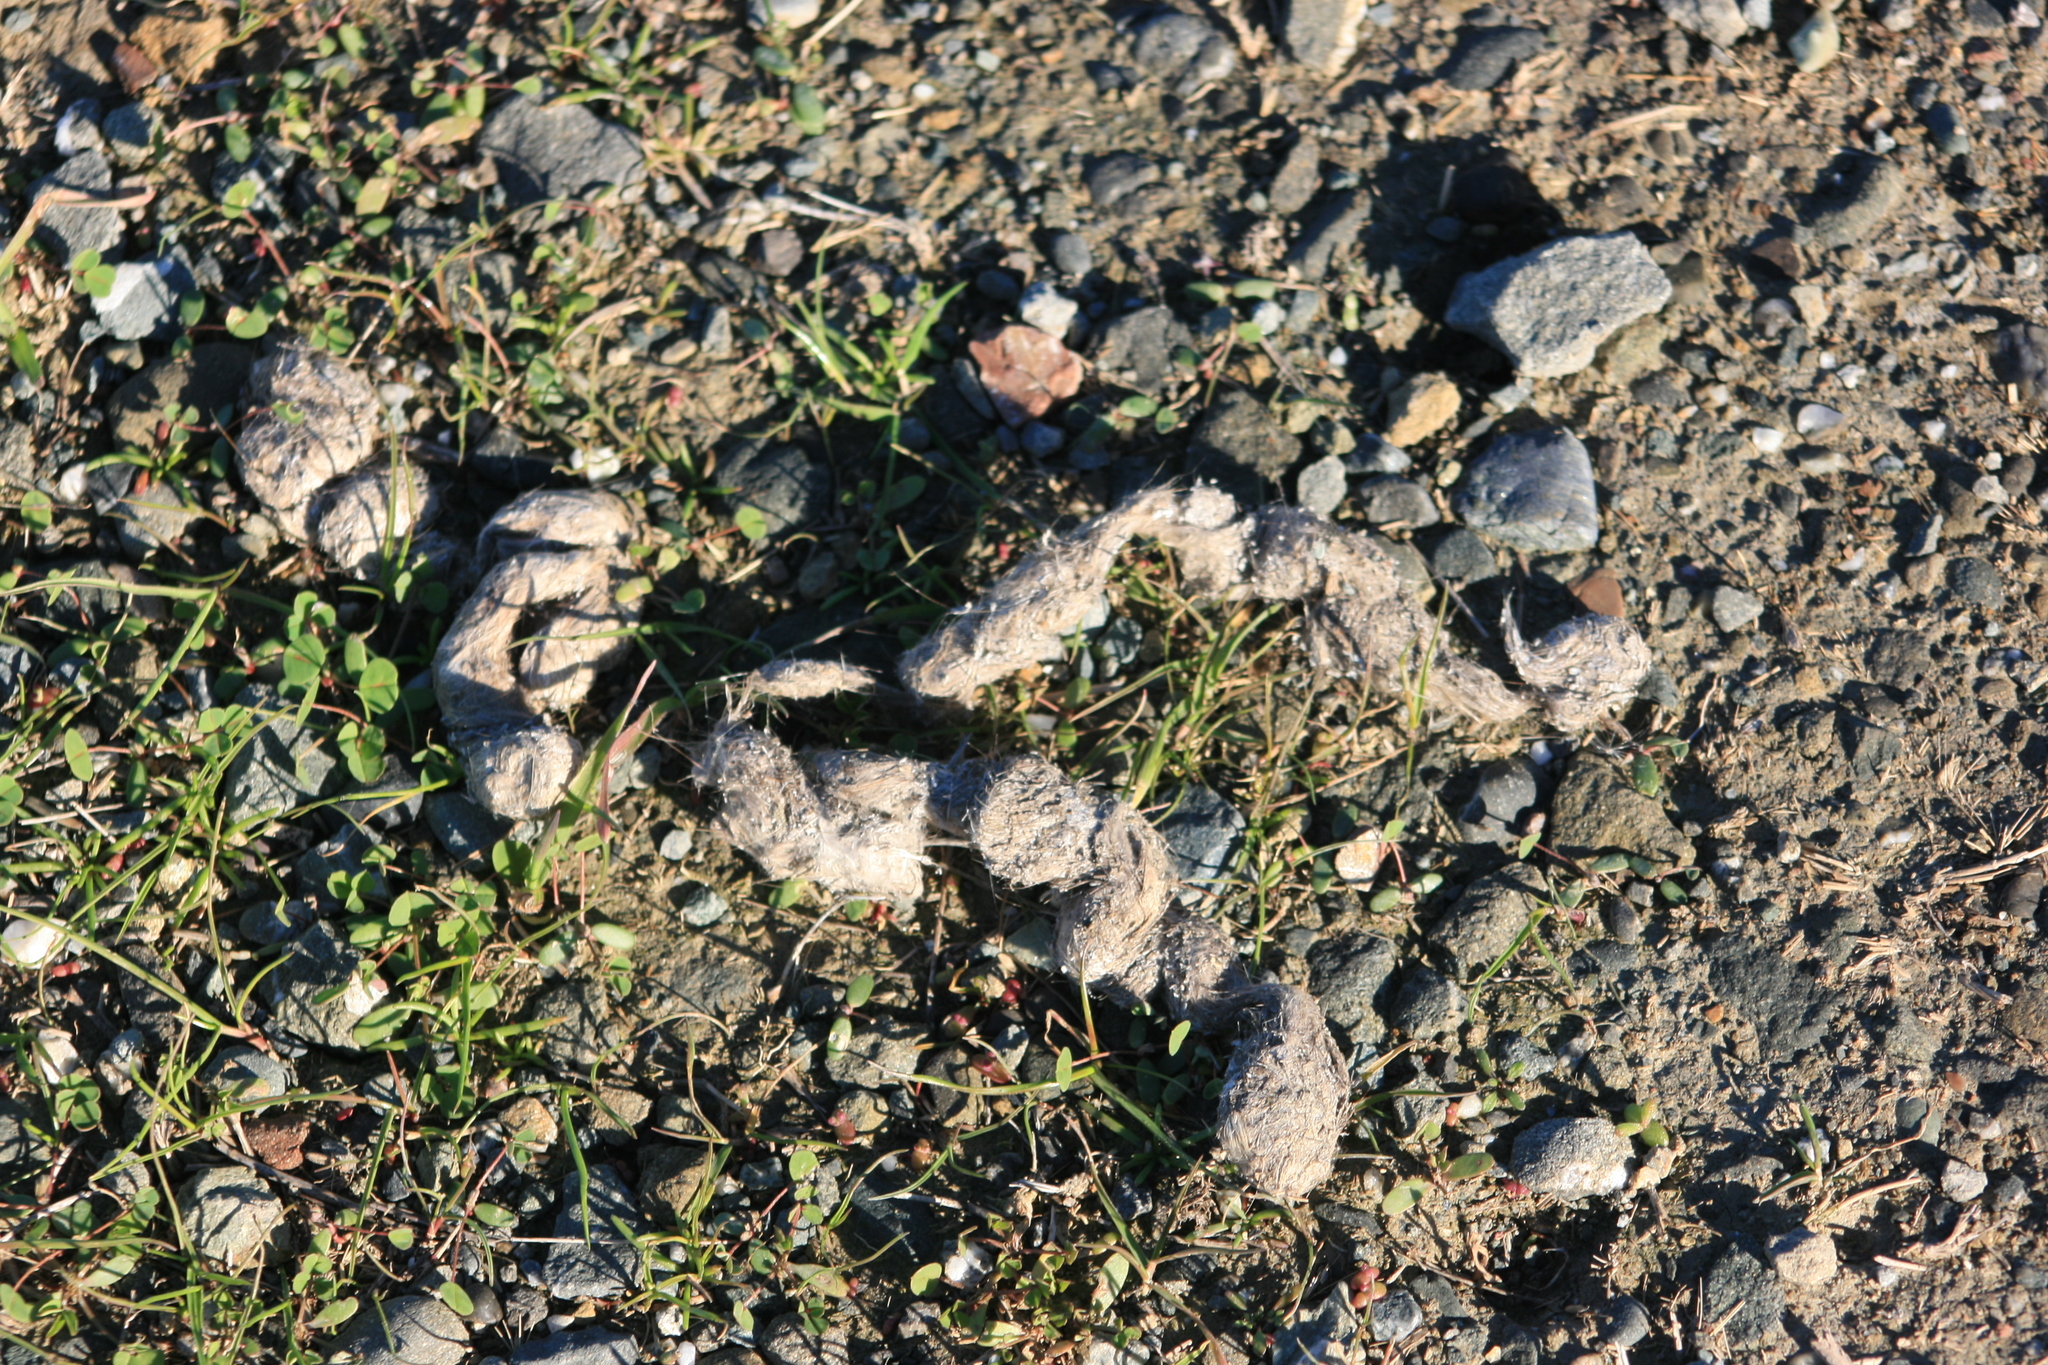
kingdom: Animalia
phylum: Chordata
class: Mammalia
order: Carnivora
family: Canidae
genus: Canis
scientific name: Canis latrans
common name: Coyote
